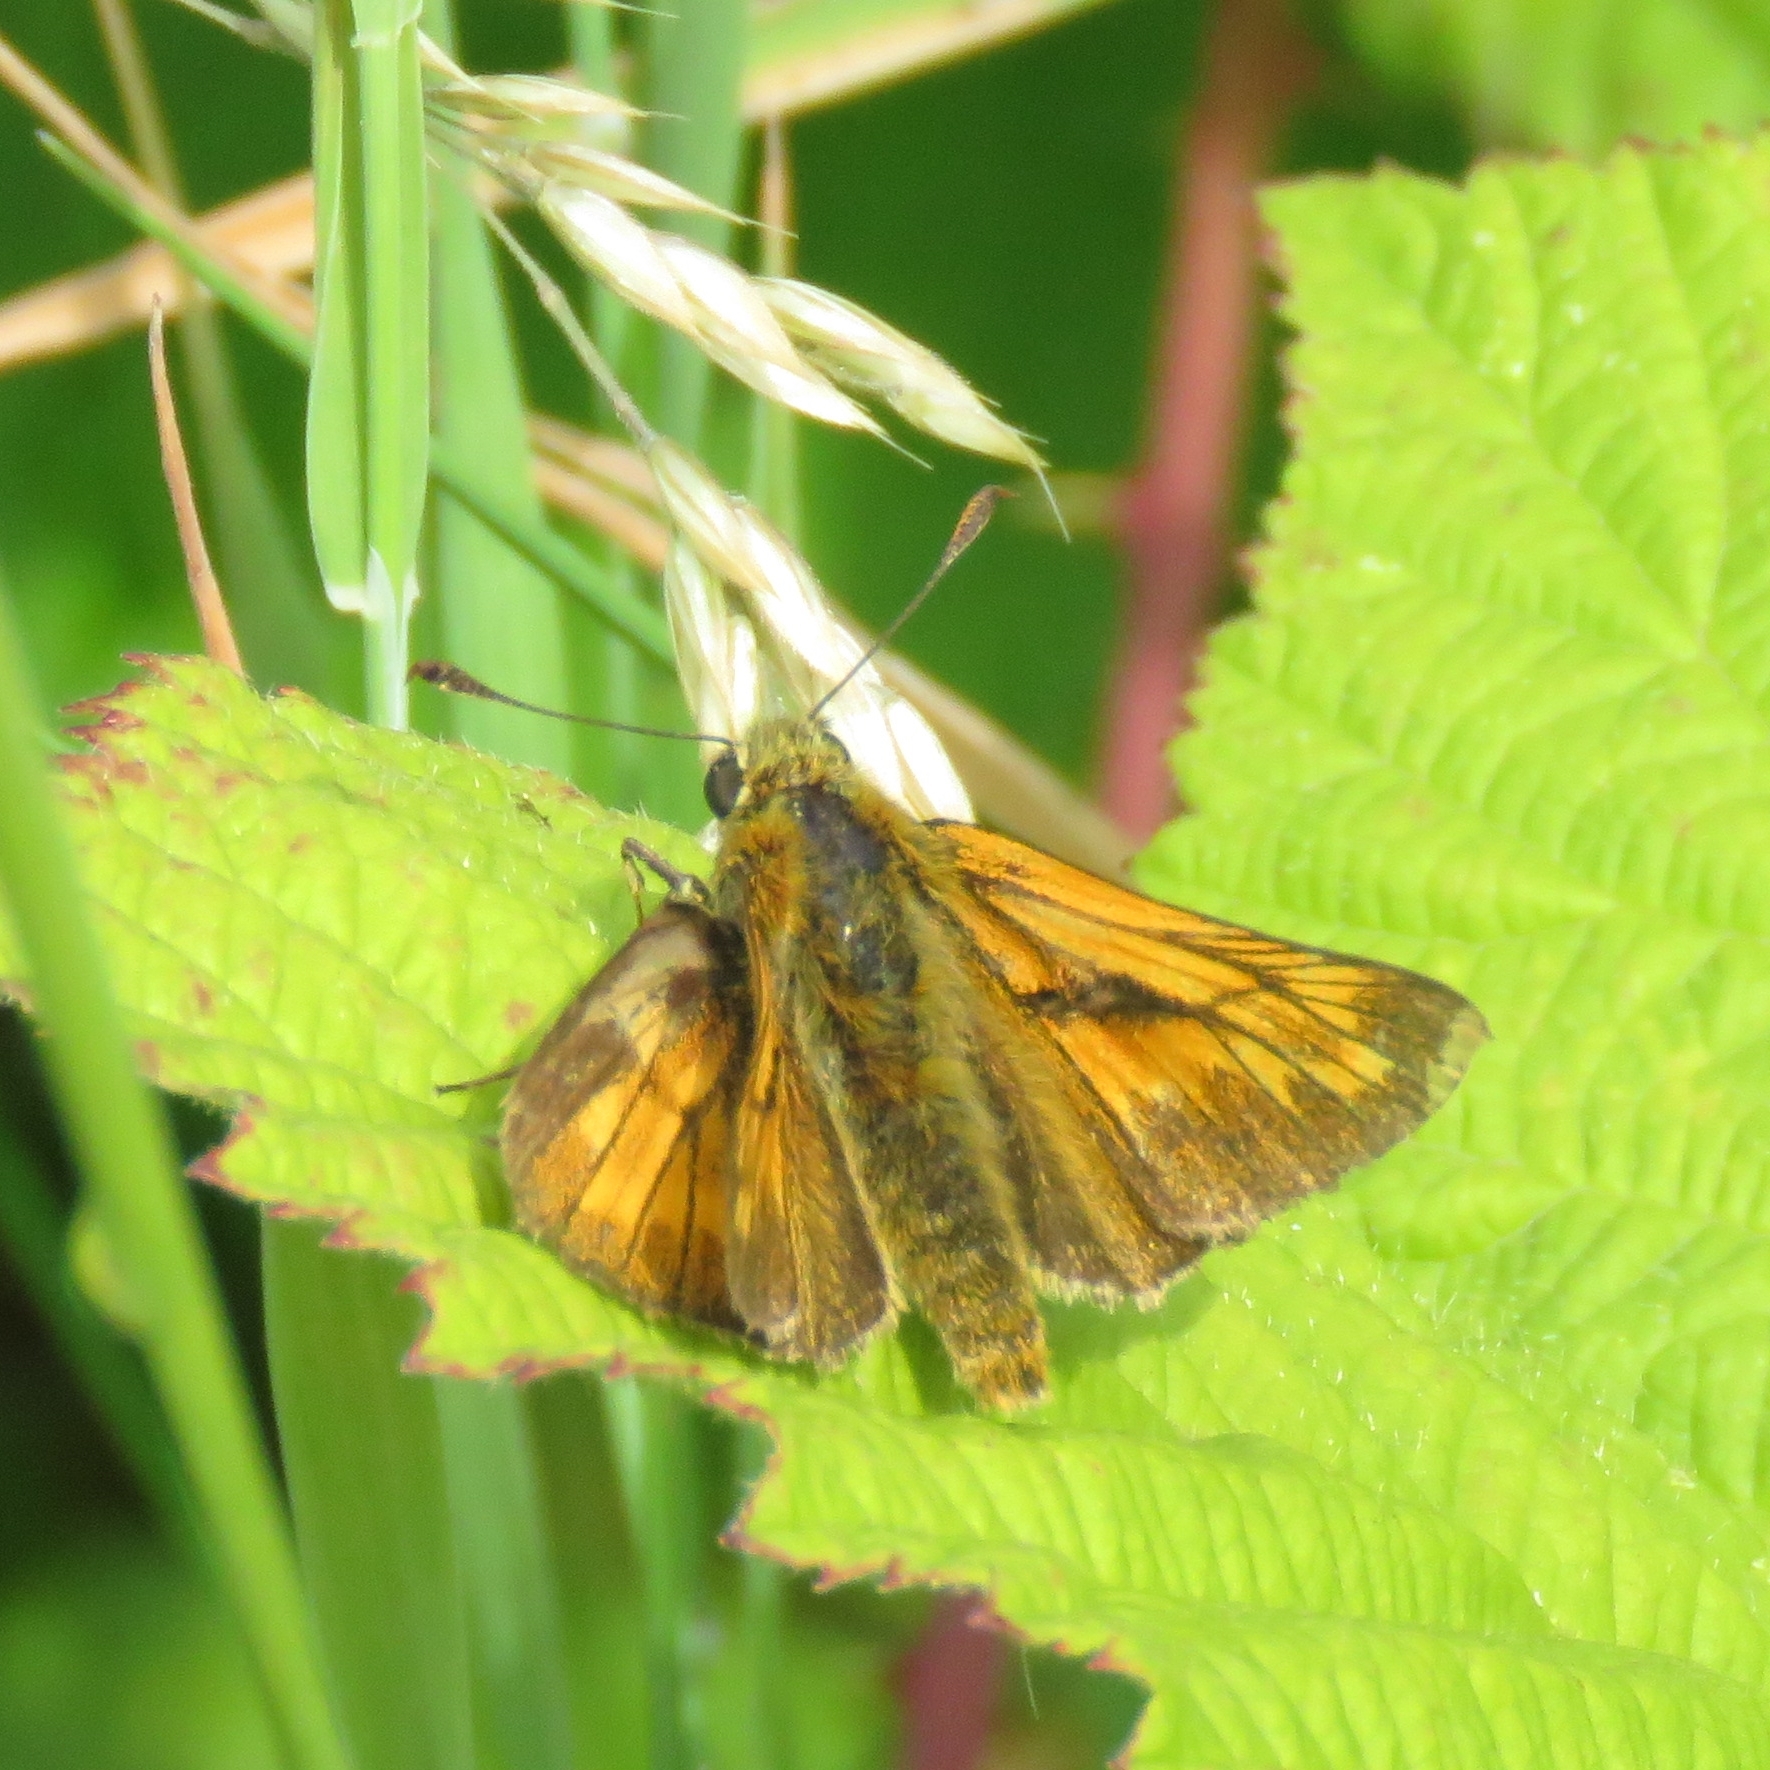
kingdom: Animalia
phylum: Arthropoda
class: Insecta
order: Lepidoptera
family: Hesperiidae
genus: Ochlodes
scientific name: Ochlodes venata
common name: Large skipper
